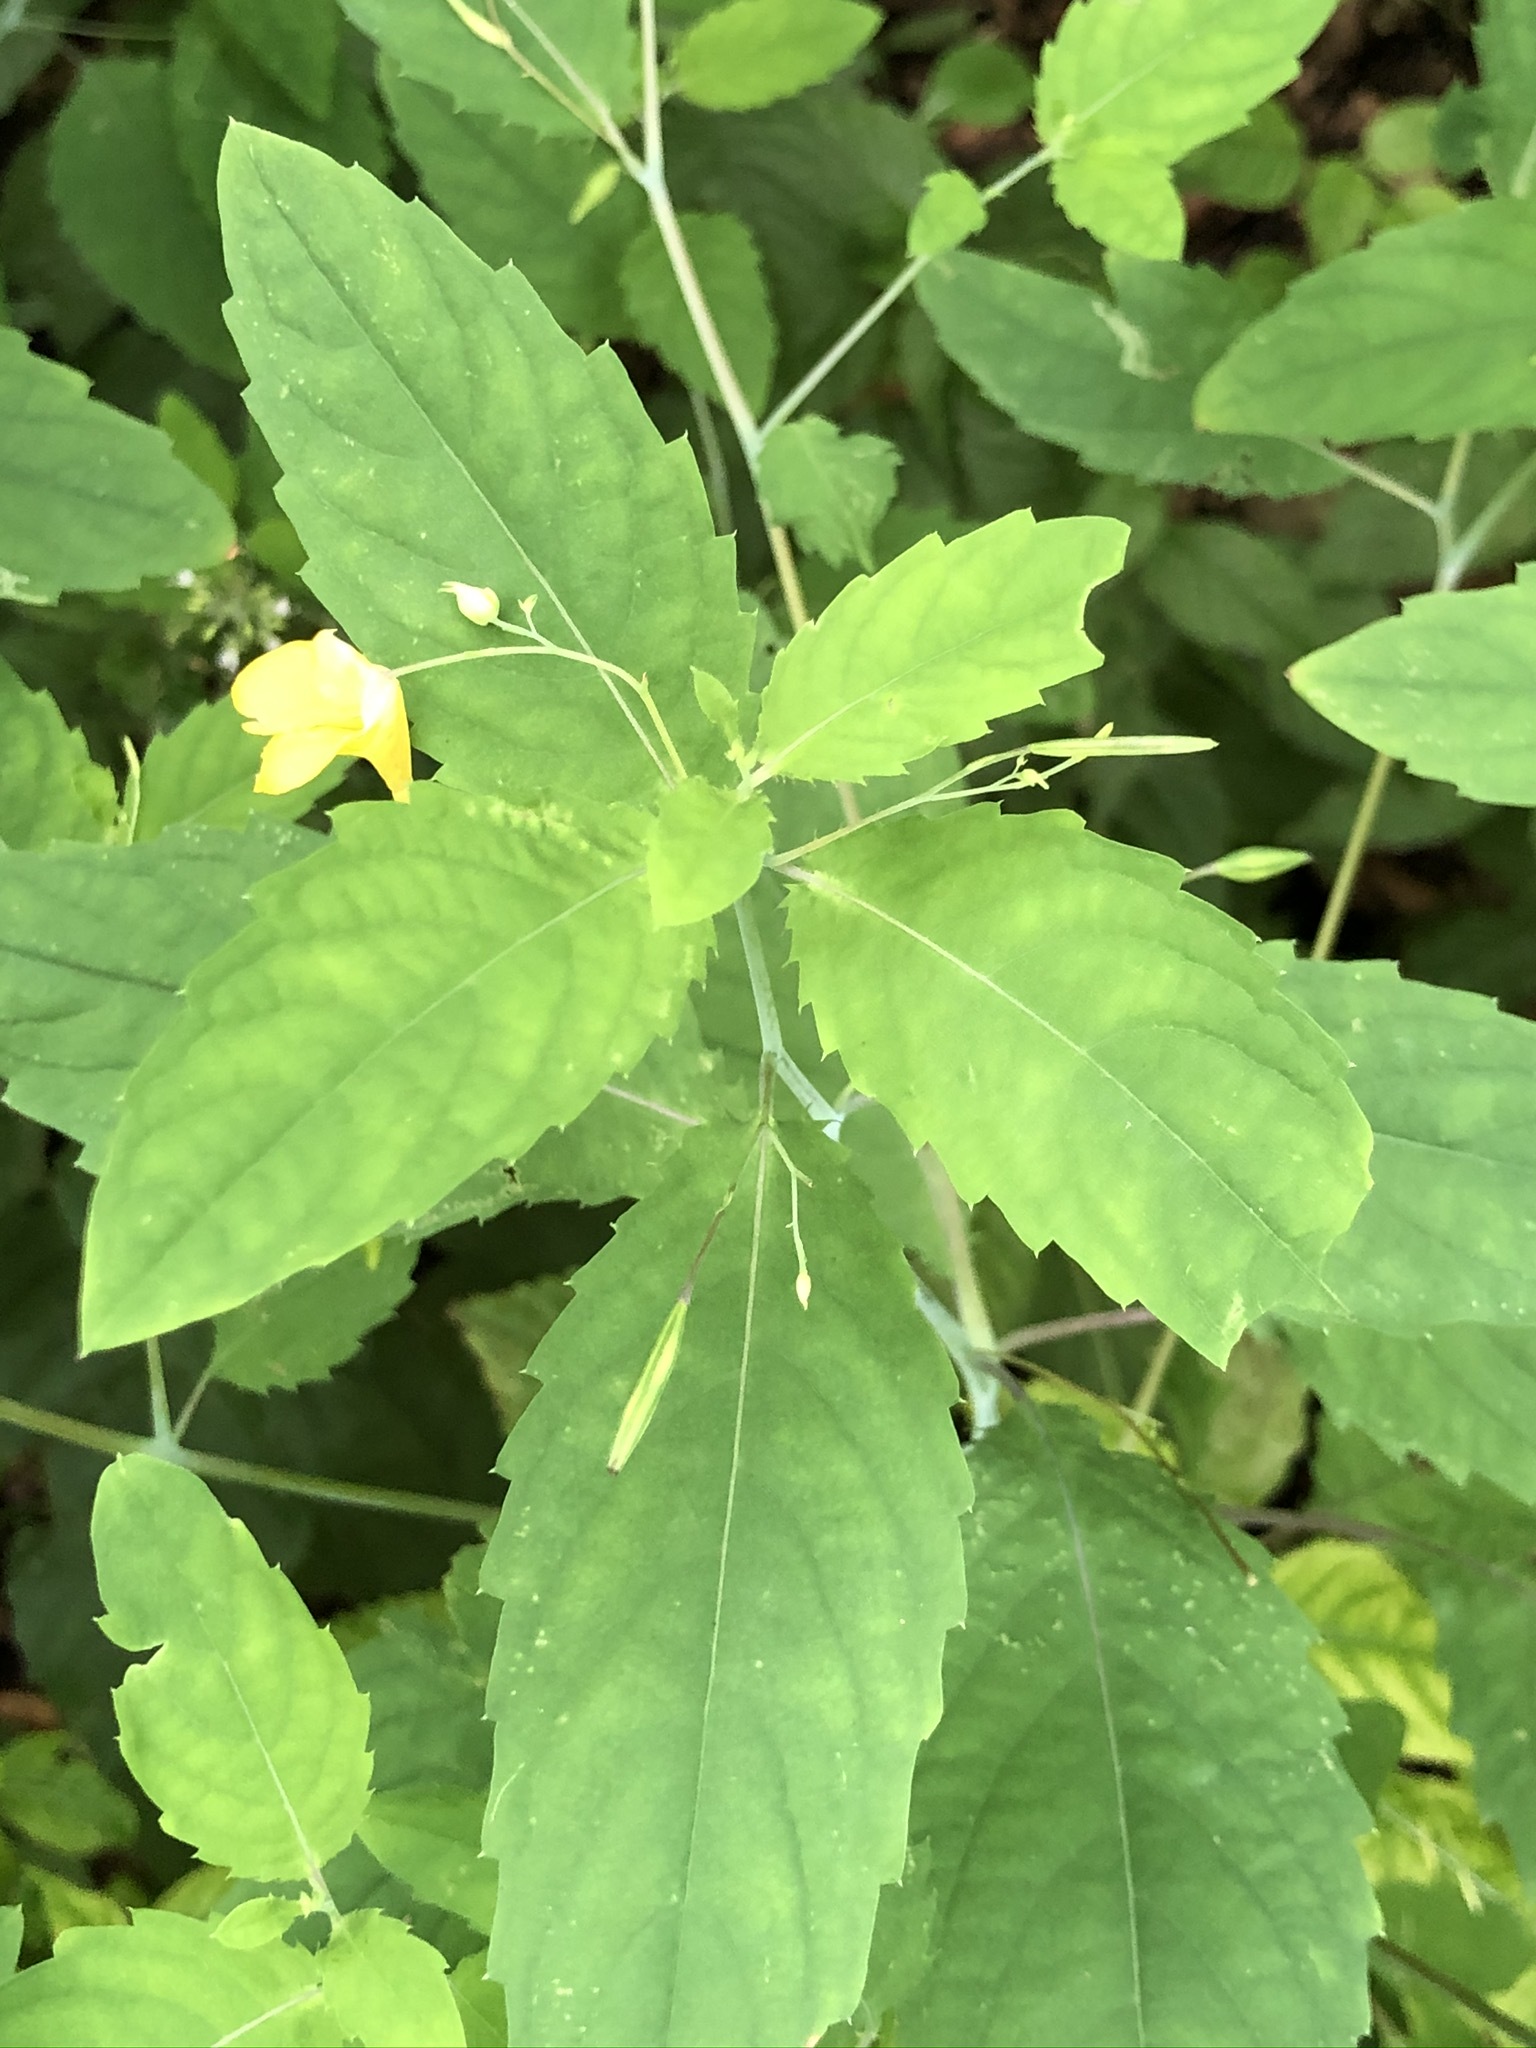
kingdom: Plantae
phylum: Tracheophyta
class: Magnoliopsida
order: Ericales
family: Balsaminaceae
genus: Impatiens
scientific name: Impatiens noli-tangere
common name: Touch-me-not balsam
